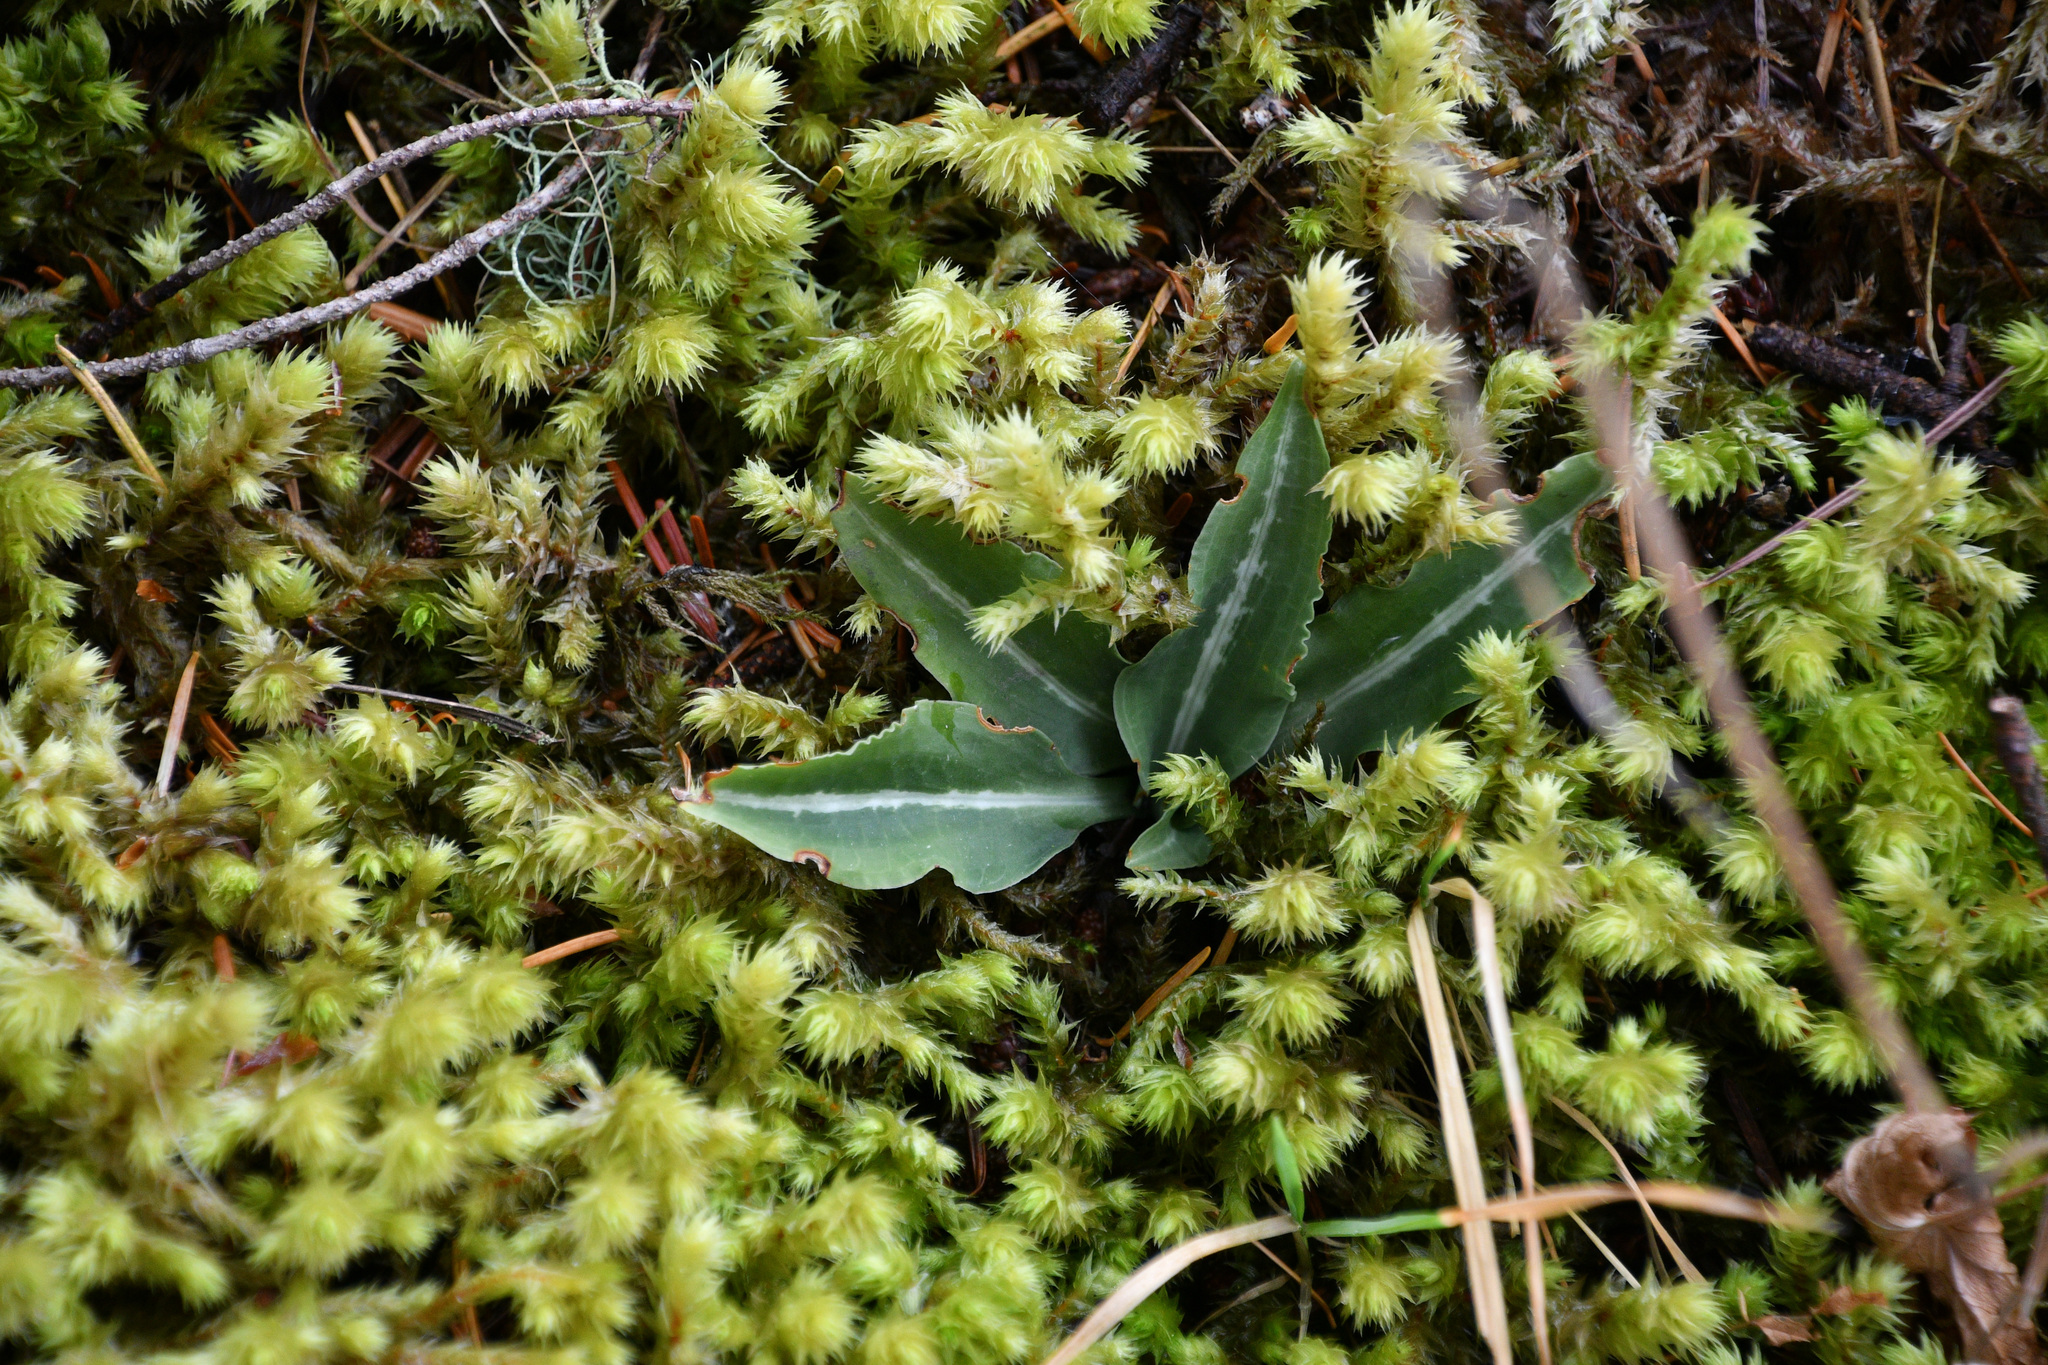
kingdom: Plantae
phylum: Tracheophyta
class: Liliopsida
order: Asparagales
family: Orchidaceae
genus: Goodyera
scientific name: Goodyera oblongifolia
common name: Giant rattlesnake-plantain
